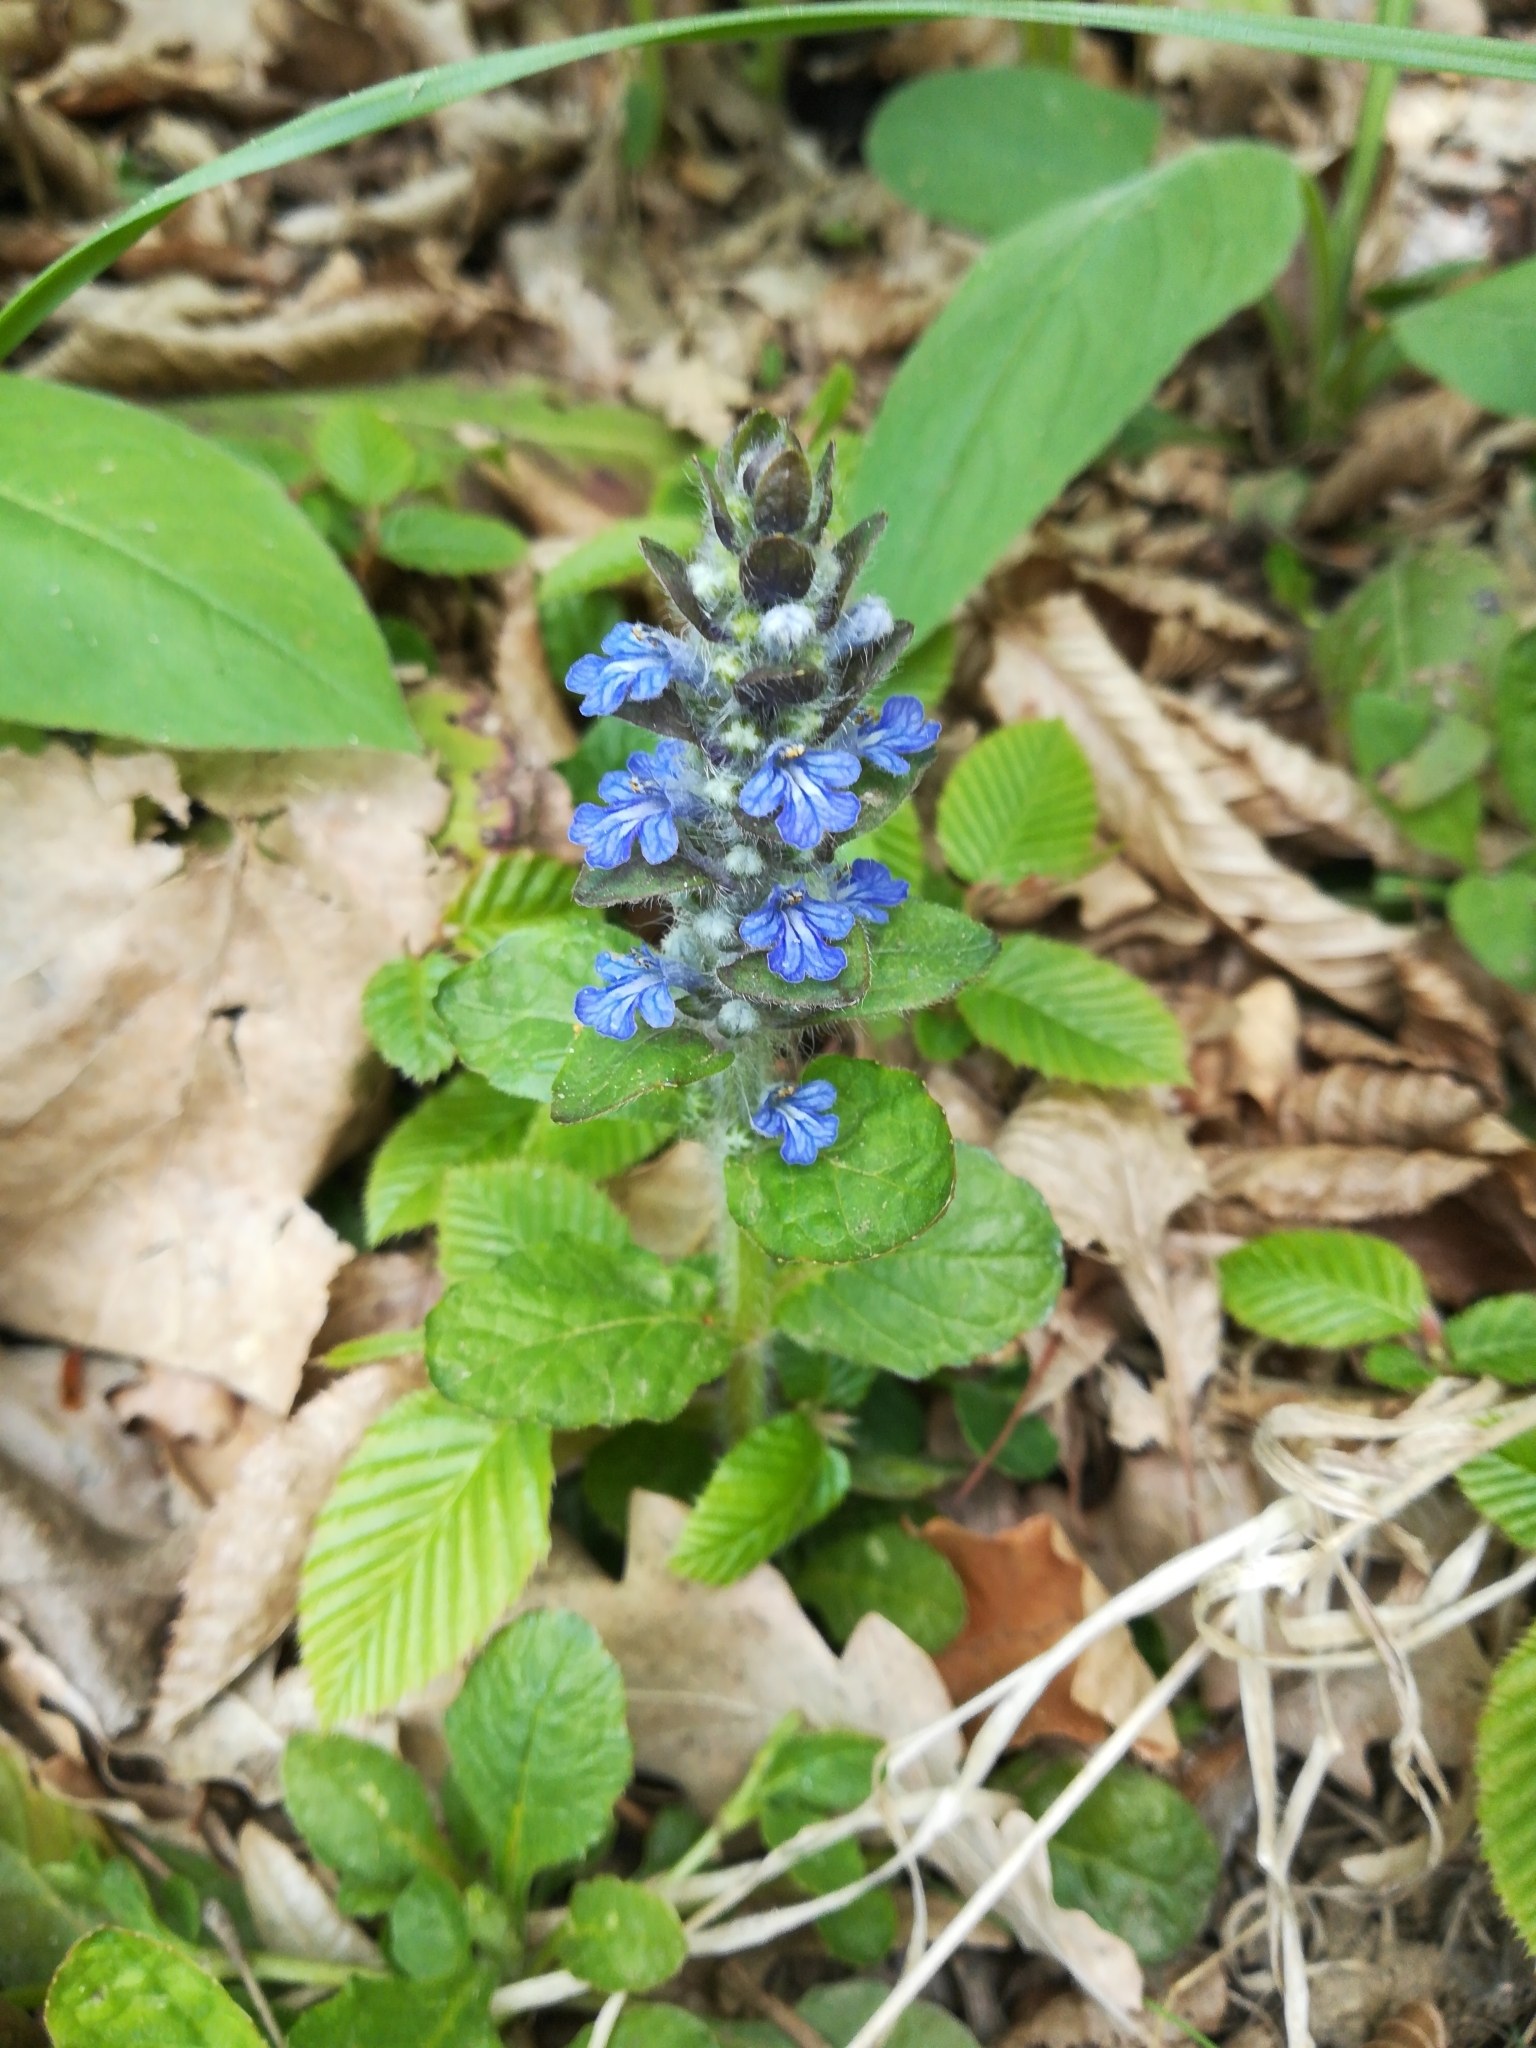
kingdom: Plantae
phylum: Tracheophyta
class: Magnoliopsida
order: Lamiales
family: Lamiaceae
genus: Ajuga
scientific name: Ajuga reptans
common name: Bugle
